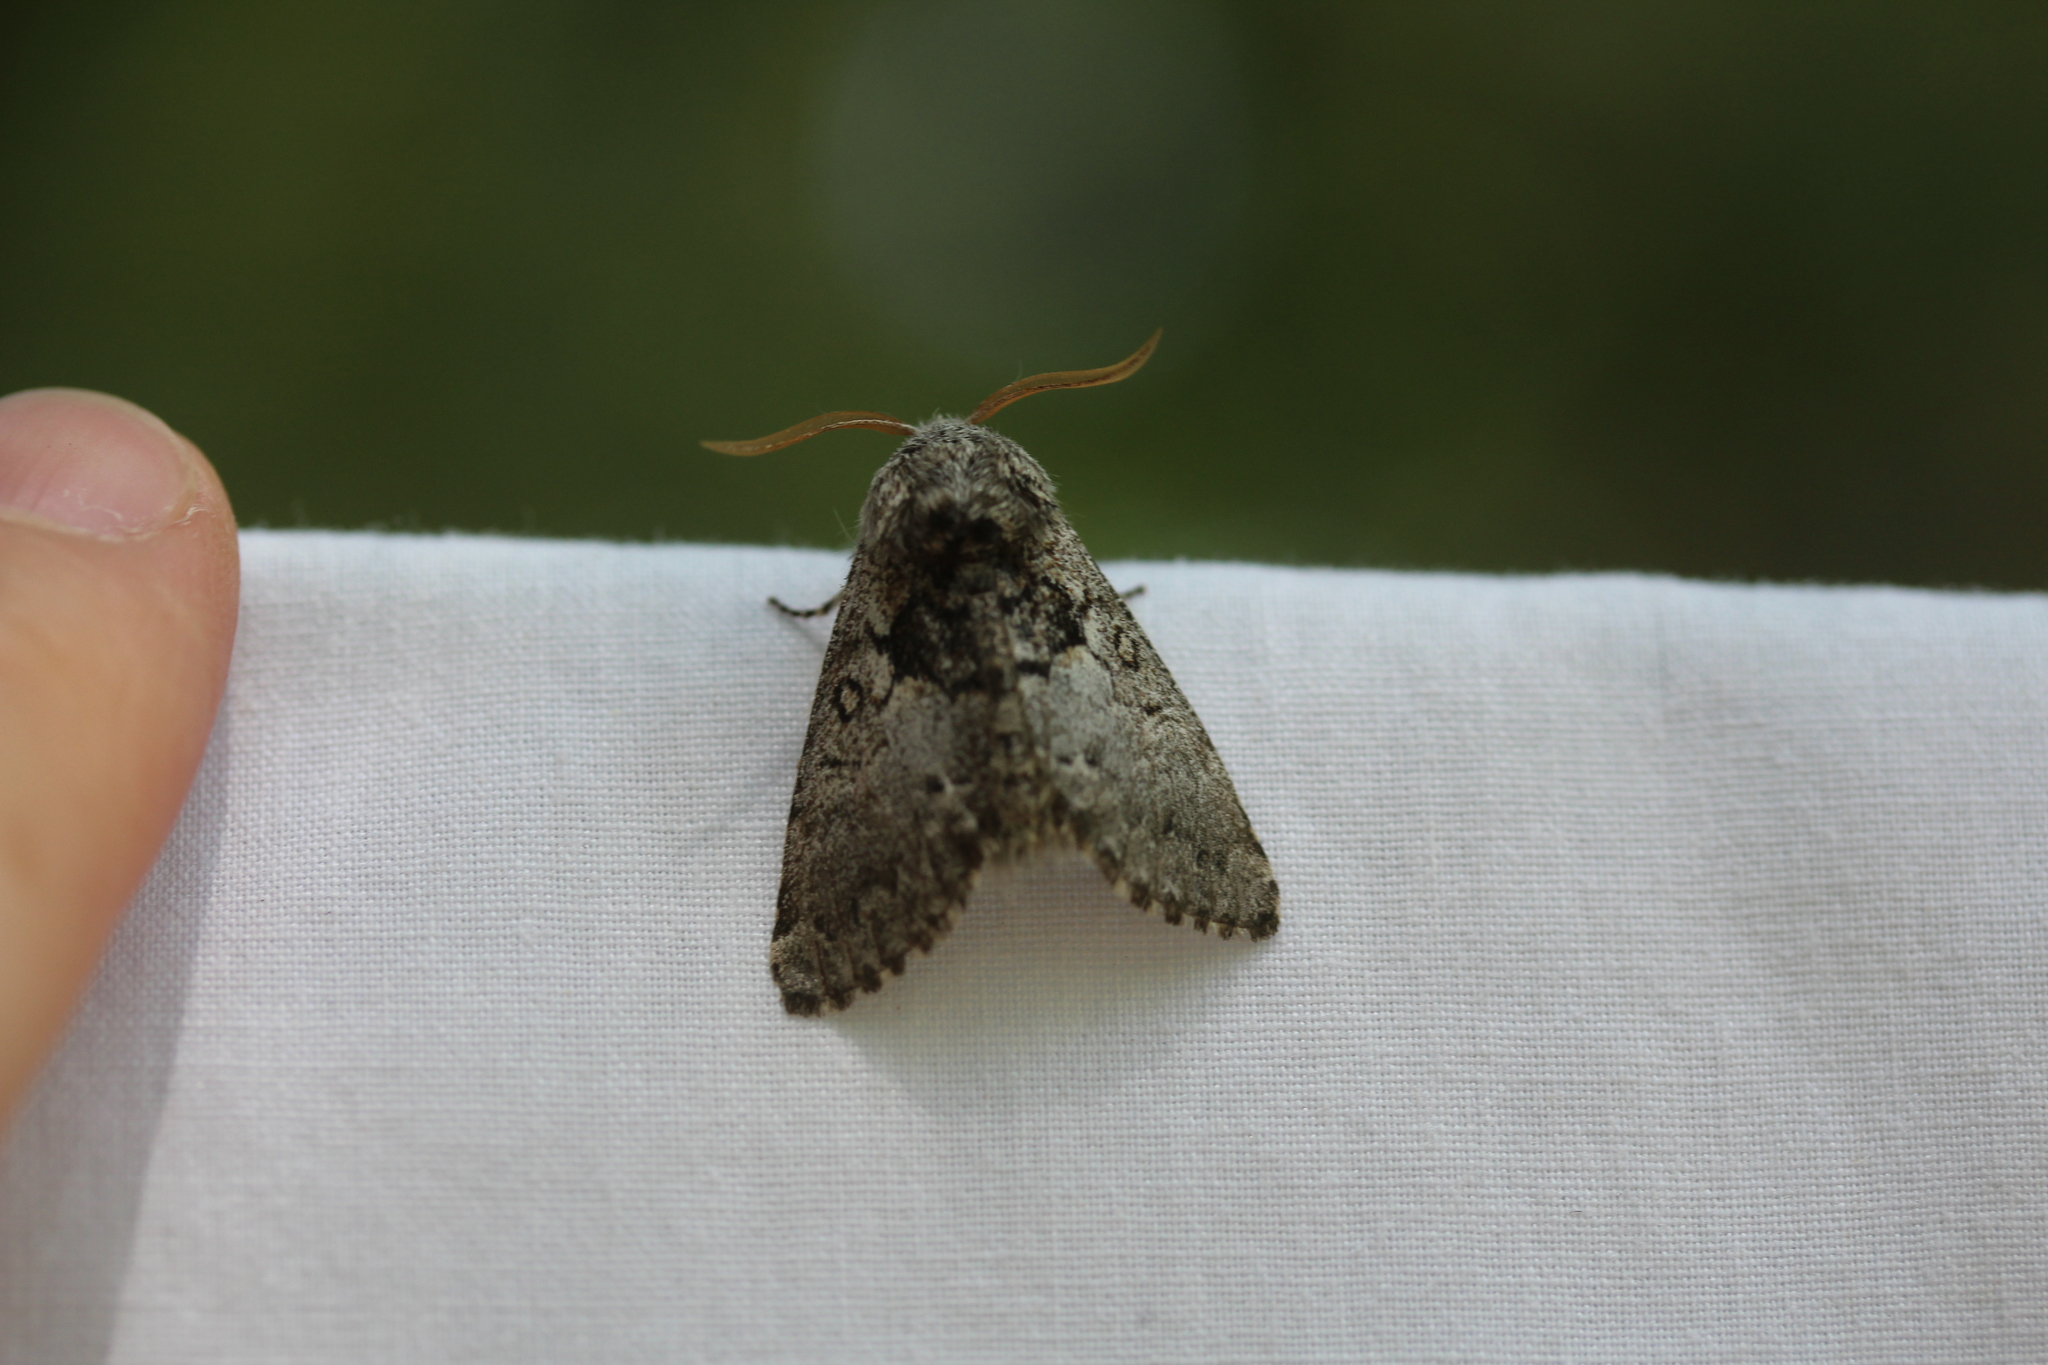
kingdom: Animalia
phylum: Arthropoda
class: Insecta
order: Lepidoptera
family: Noctuidae
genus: Colocasia
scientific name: Colocasia flavicornis
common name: Saddled yellowhorn
